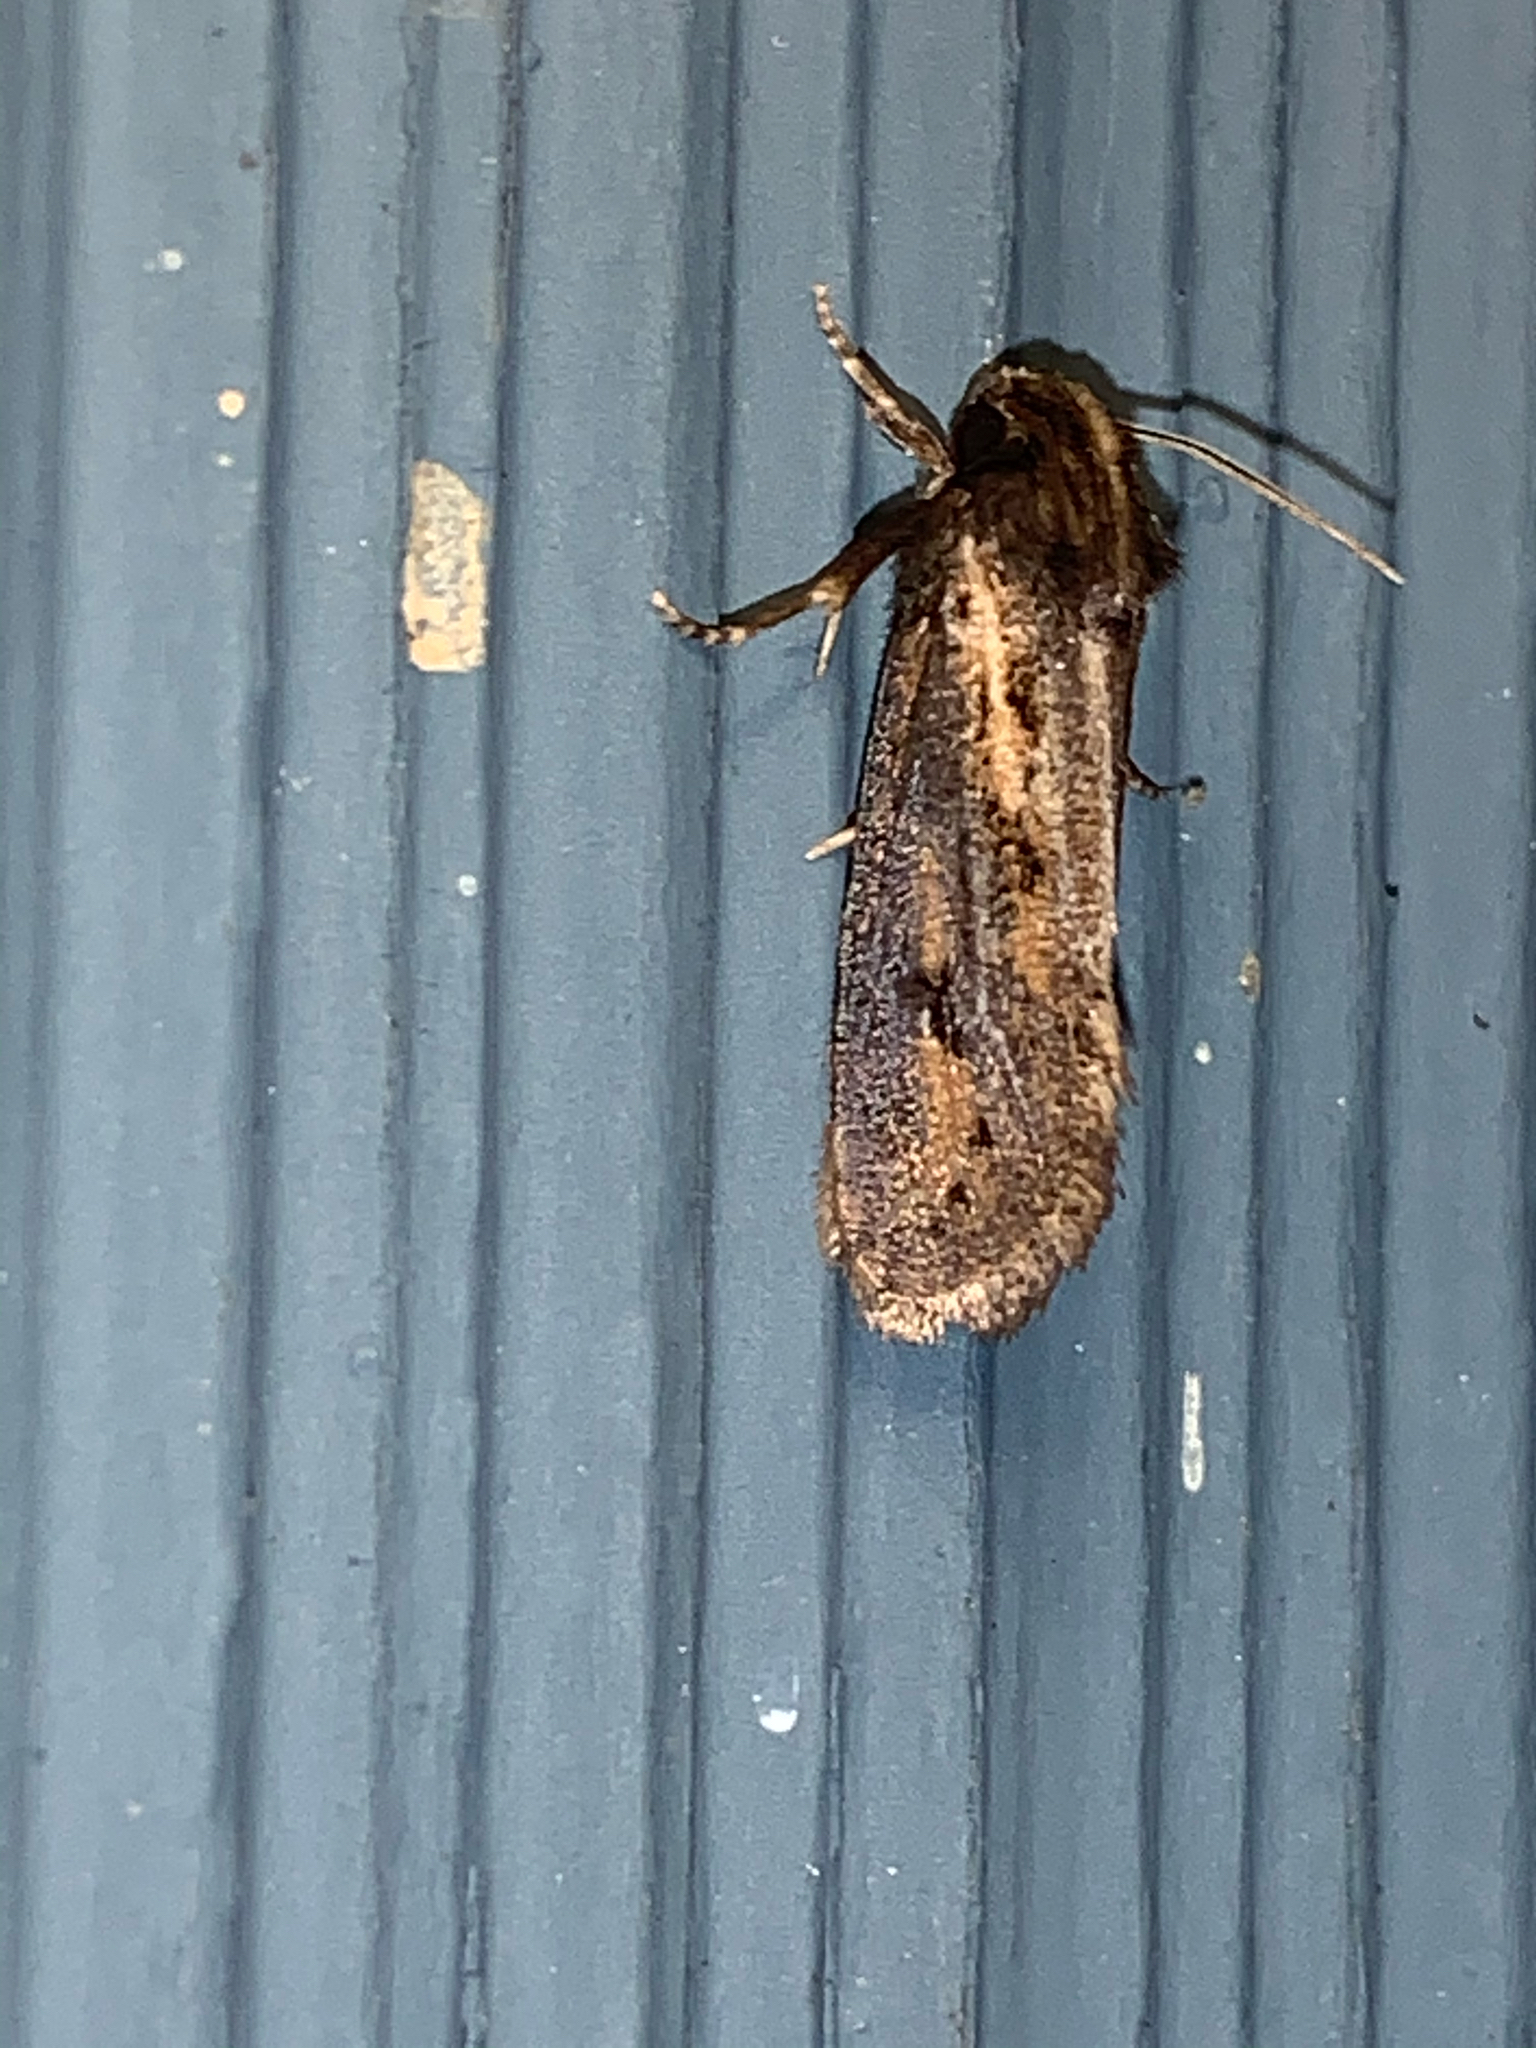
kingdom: Animalia
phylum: Arthropoda
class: Insecta
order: Lepidoptera
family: Tineidae
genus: Acrolophus
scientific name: Acrolophus popeanella
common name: Clemens' grass tubeworm moth
